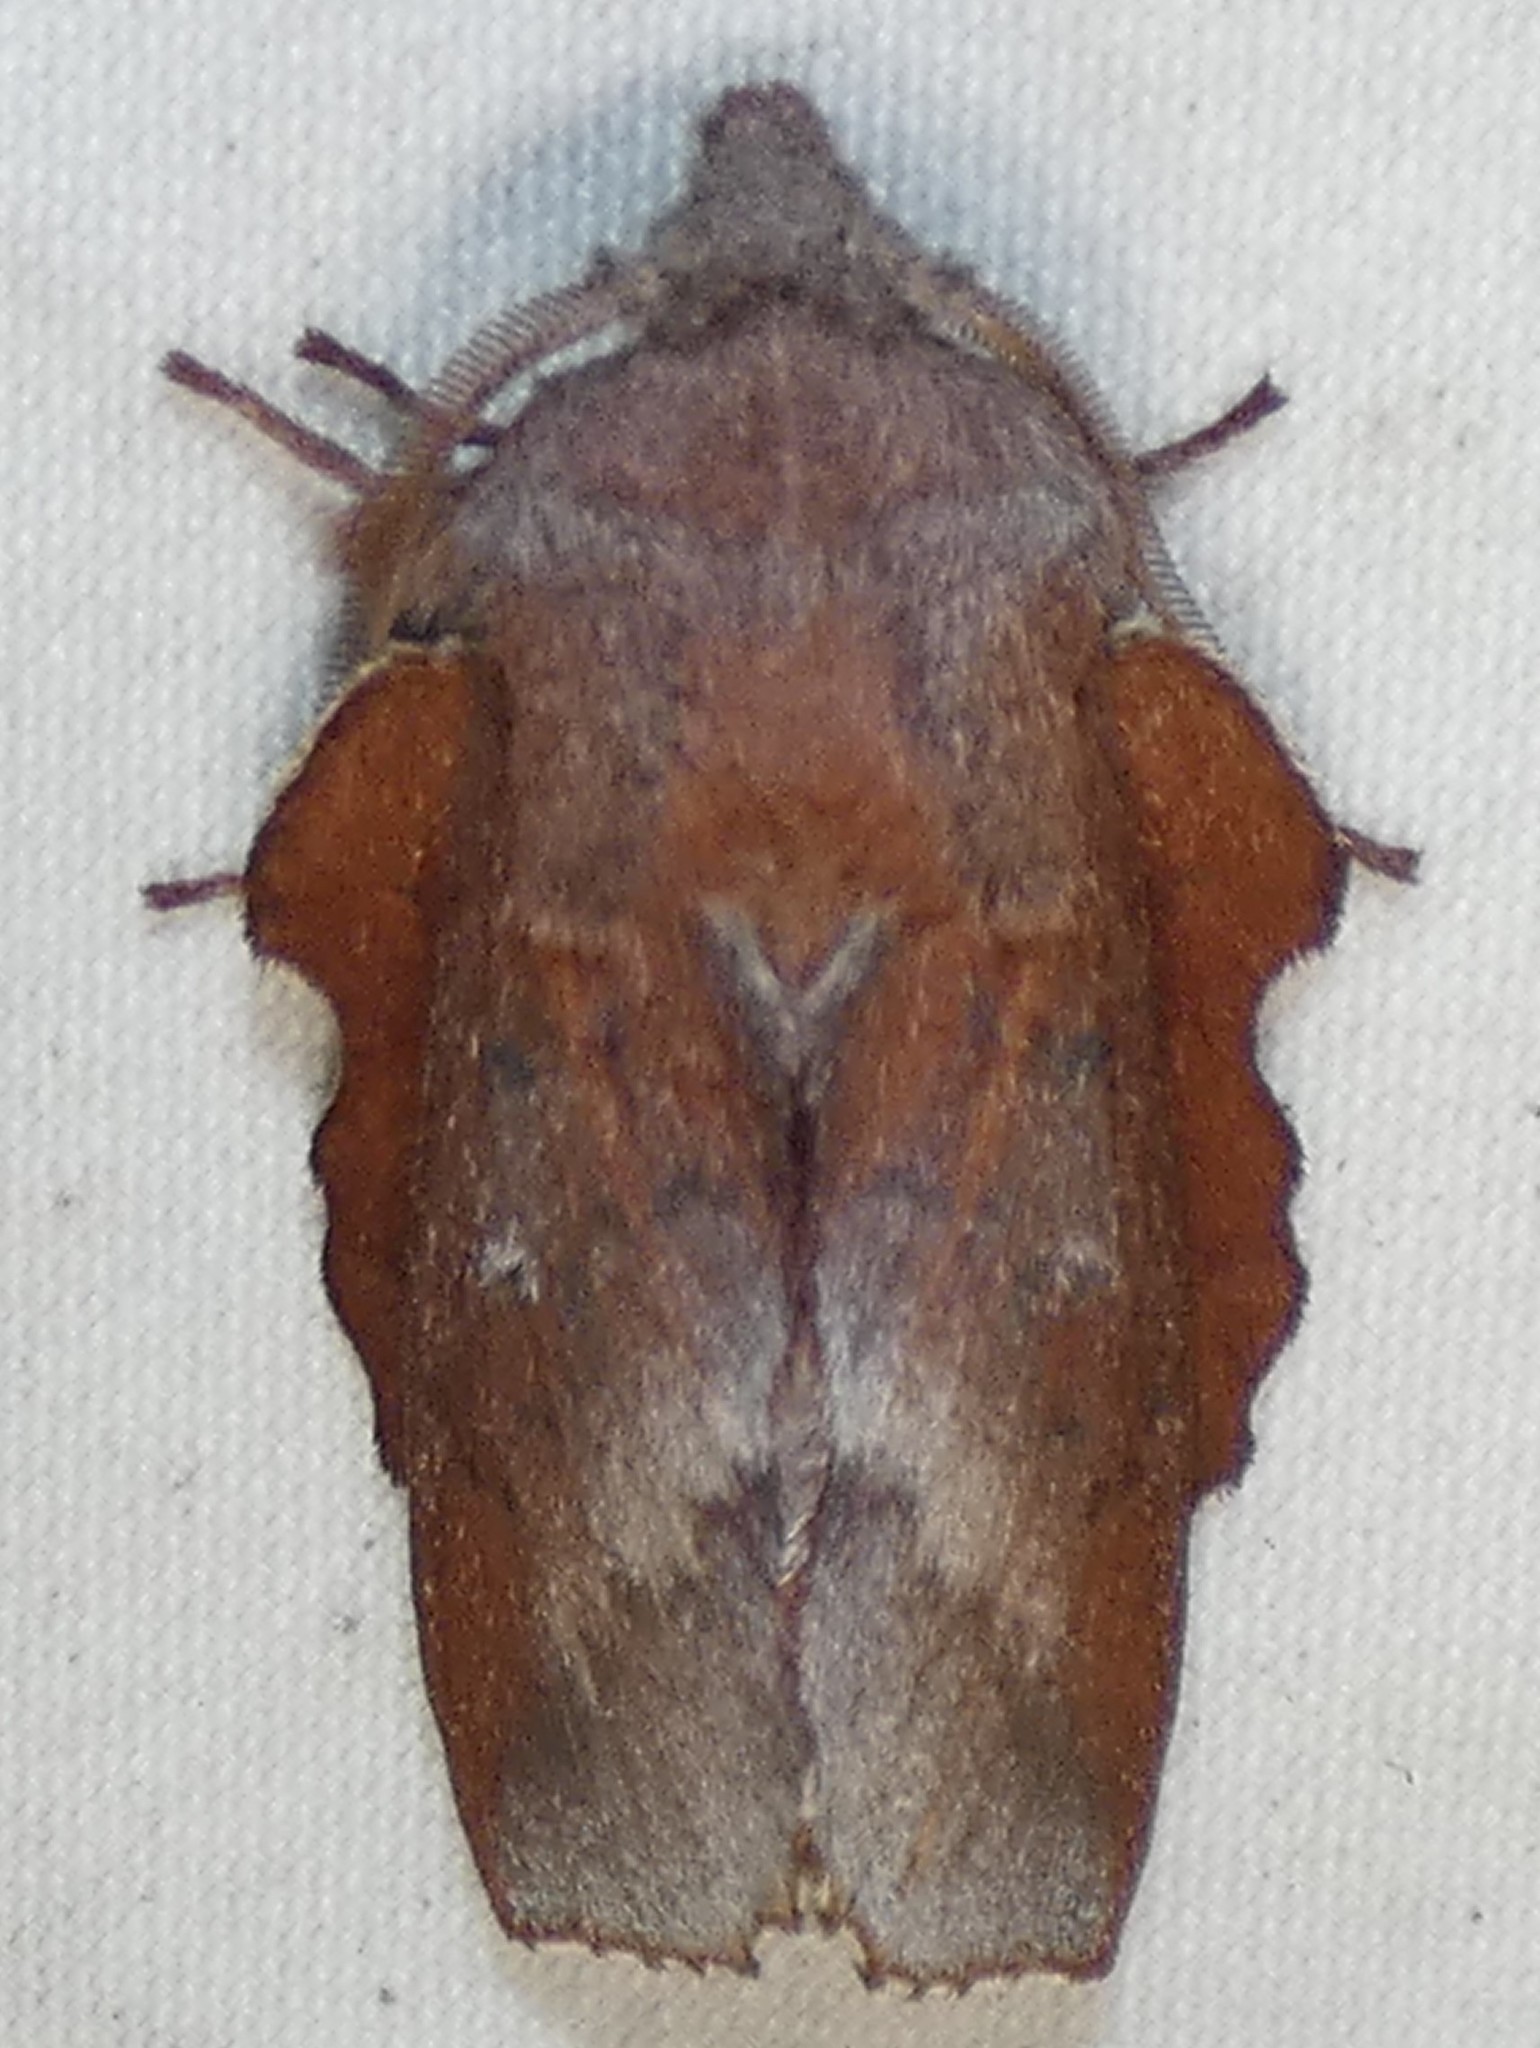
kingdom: Animalia
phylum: Arthropoda
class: Insecta
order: Lepidoptera
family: Lasiocampidae
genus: Phyllodesma
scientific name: Phyllodesma americana
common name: American lappet moth
